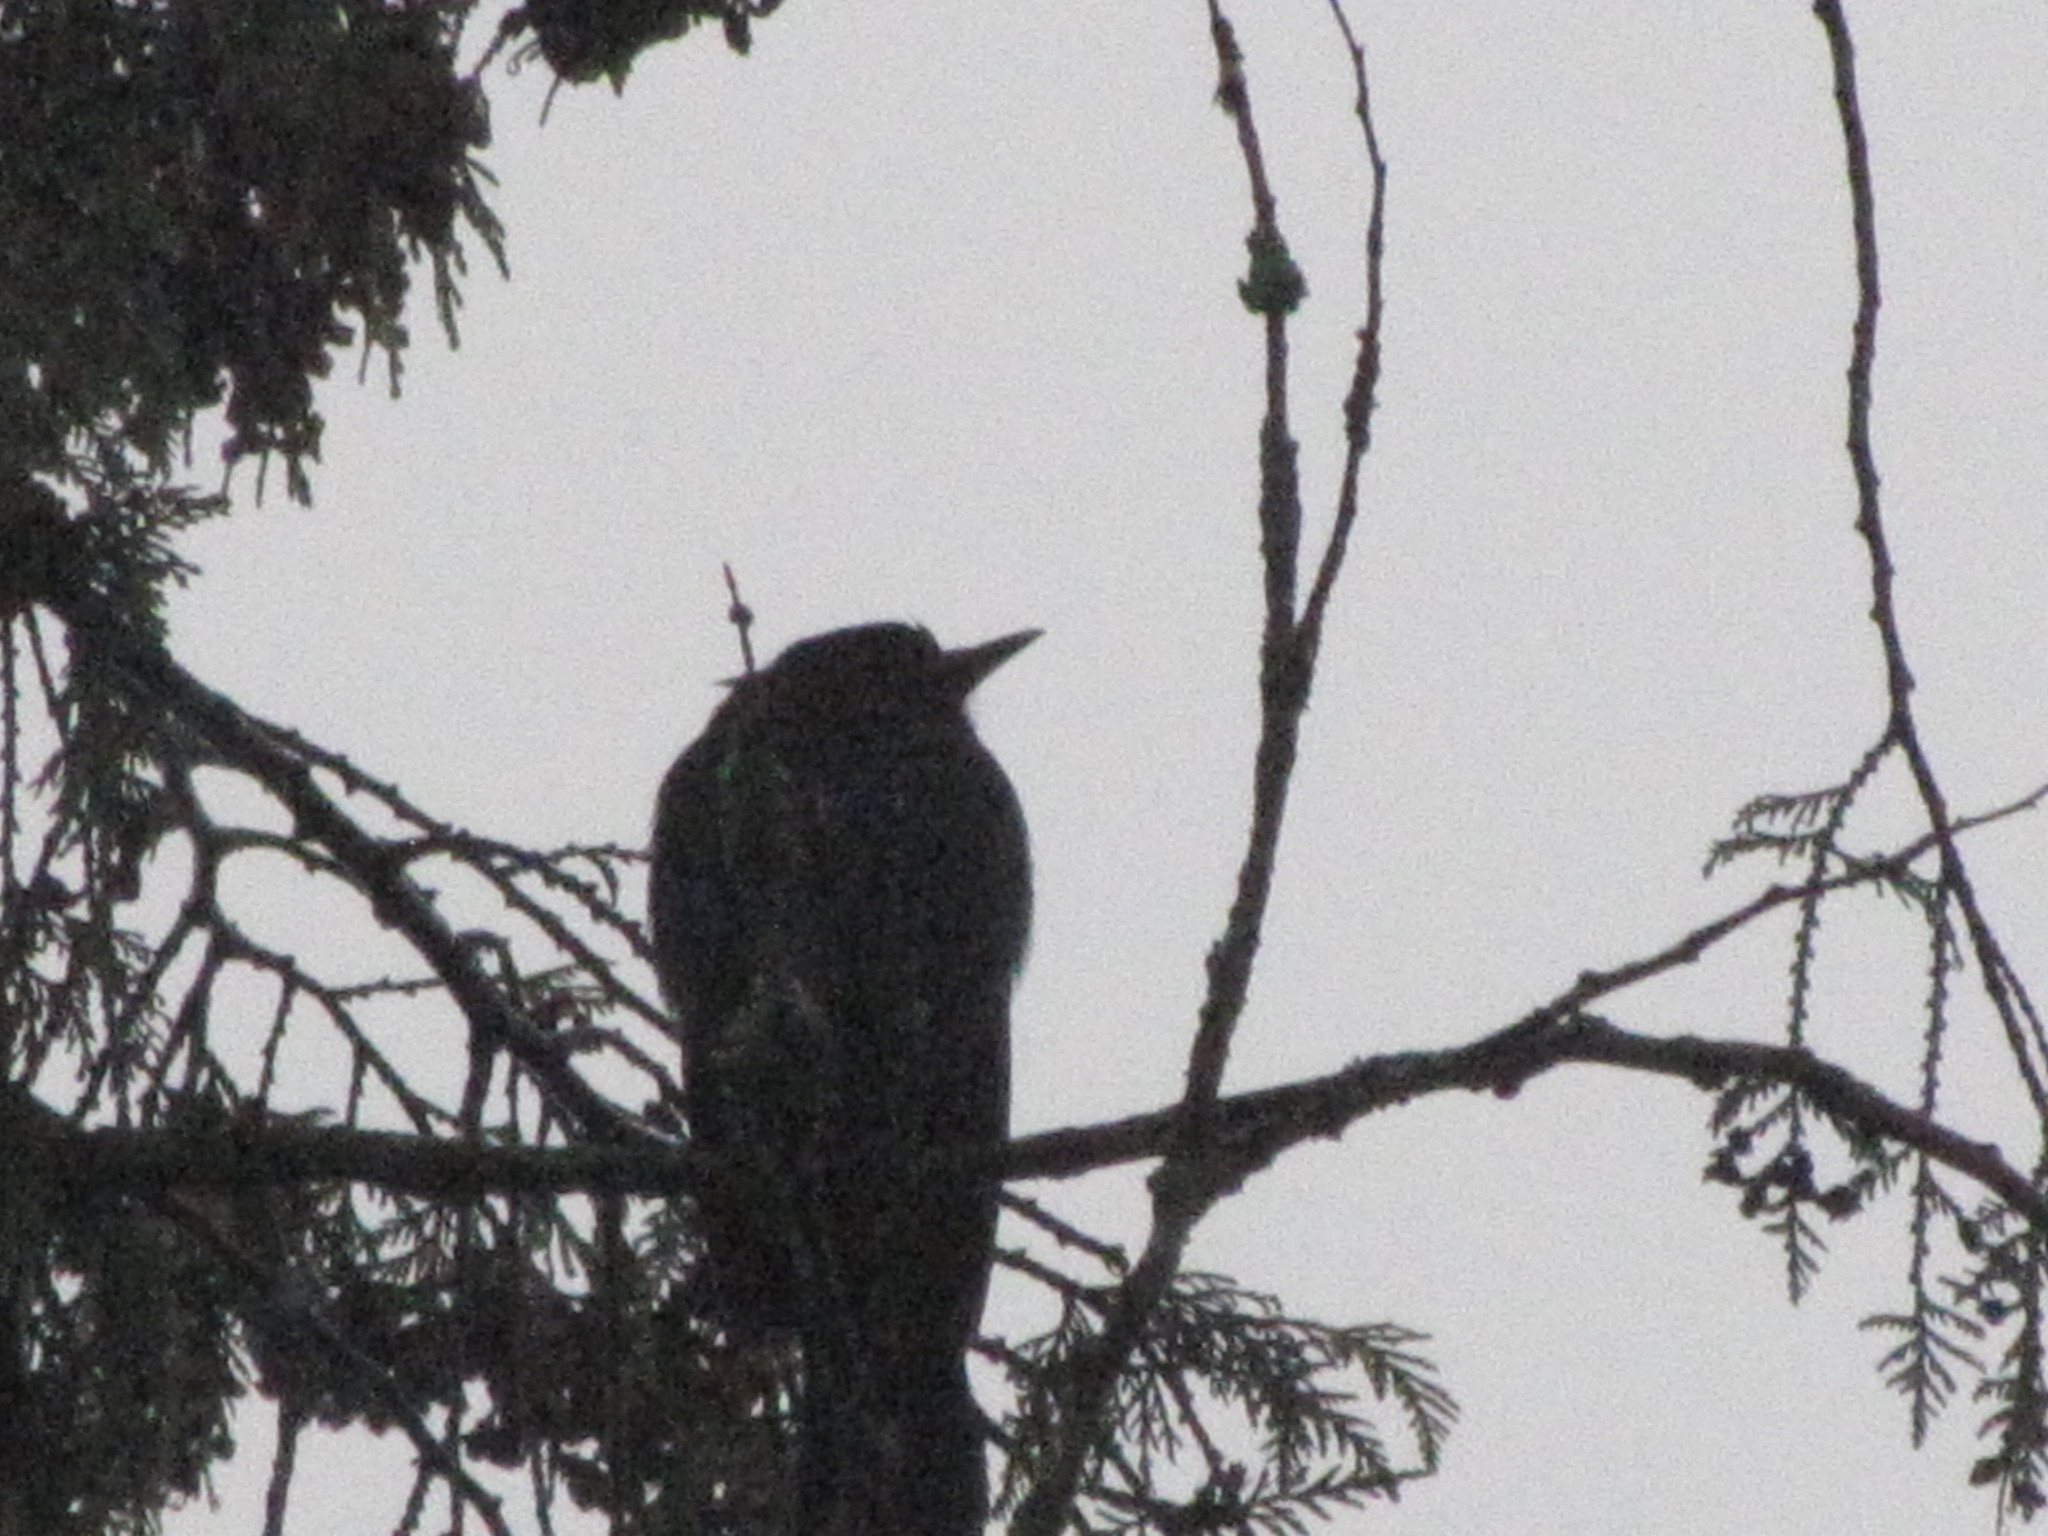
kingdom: Animalia
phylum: Chordata
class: Aves
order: Passeriformes
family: Sturnidae
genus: Sturnus
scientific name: Sturnus vulgaris
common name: Common starling
